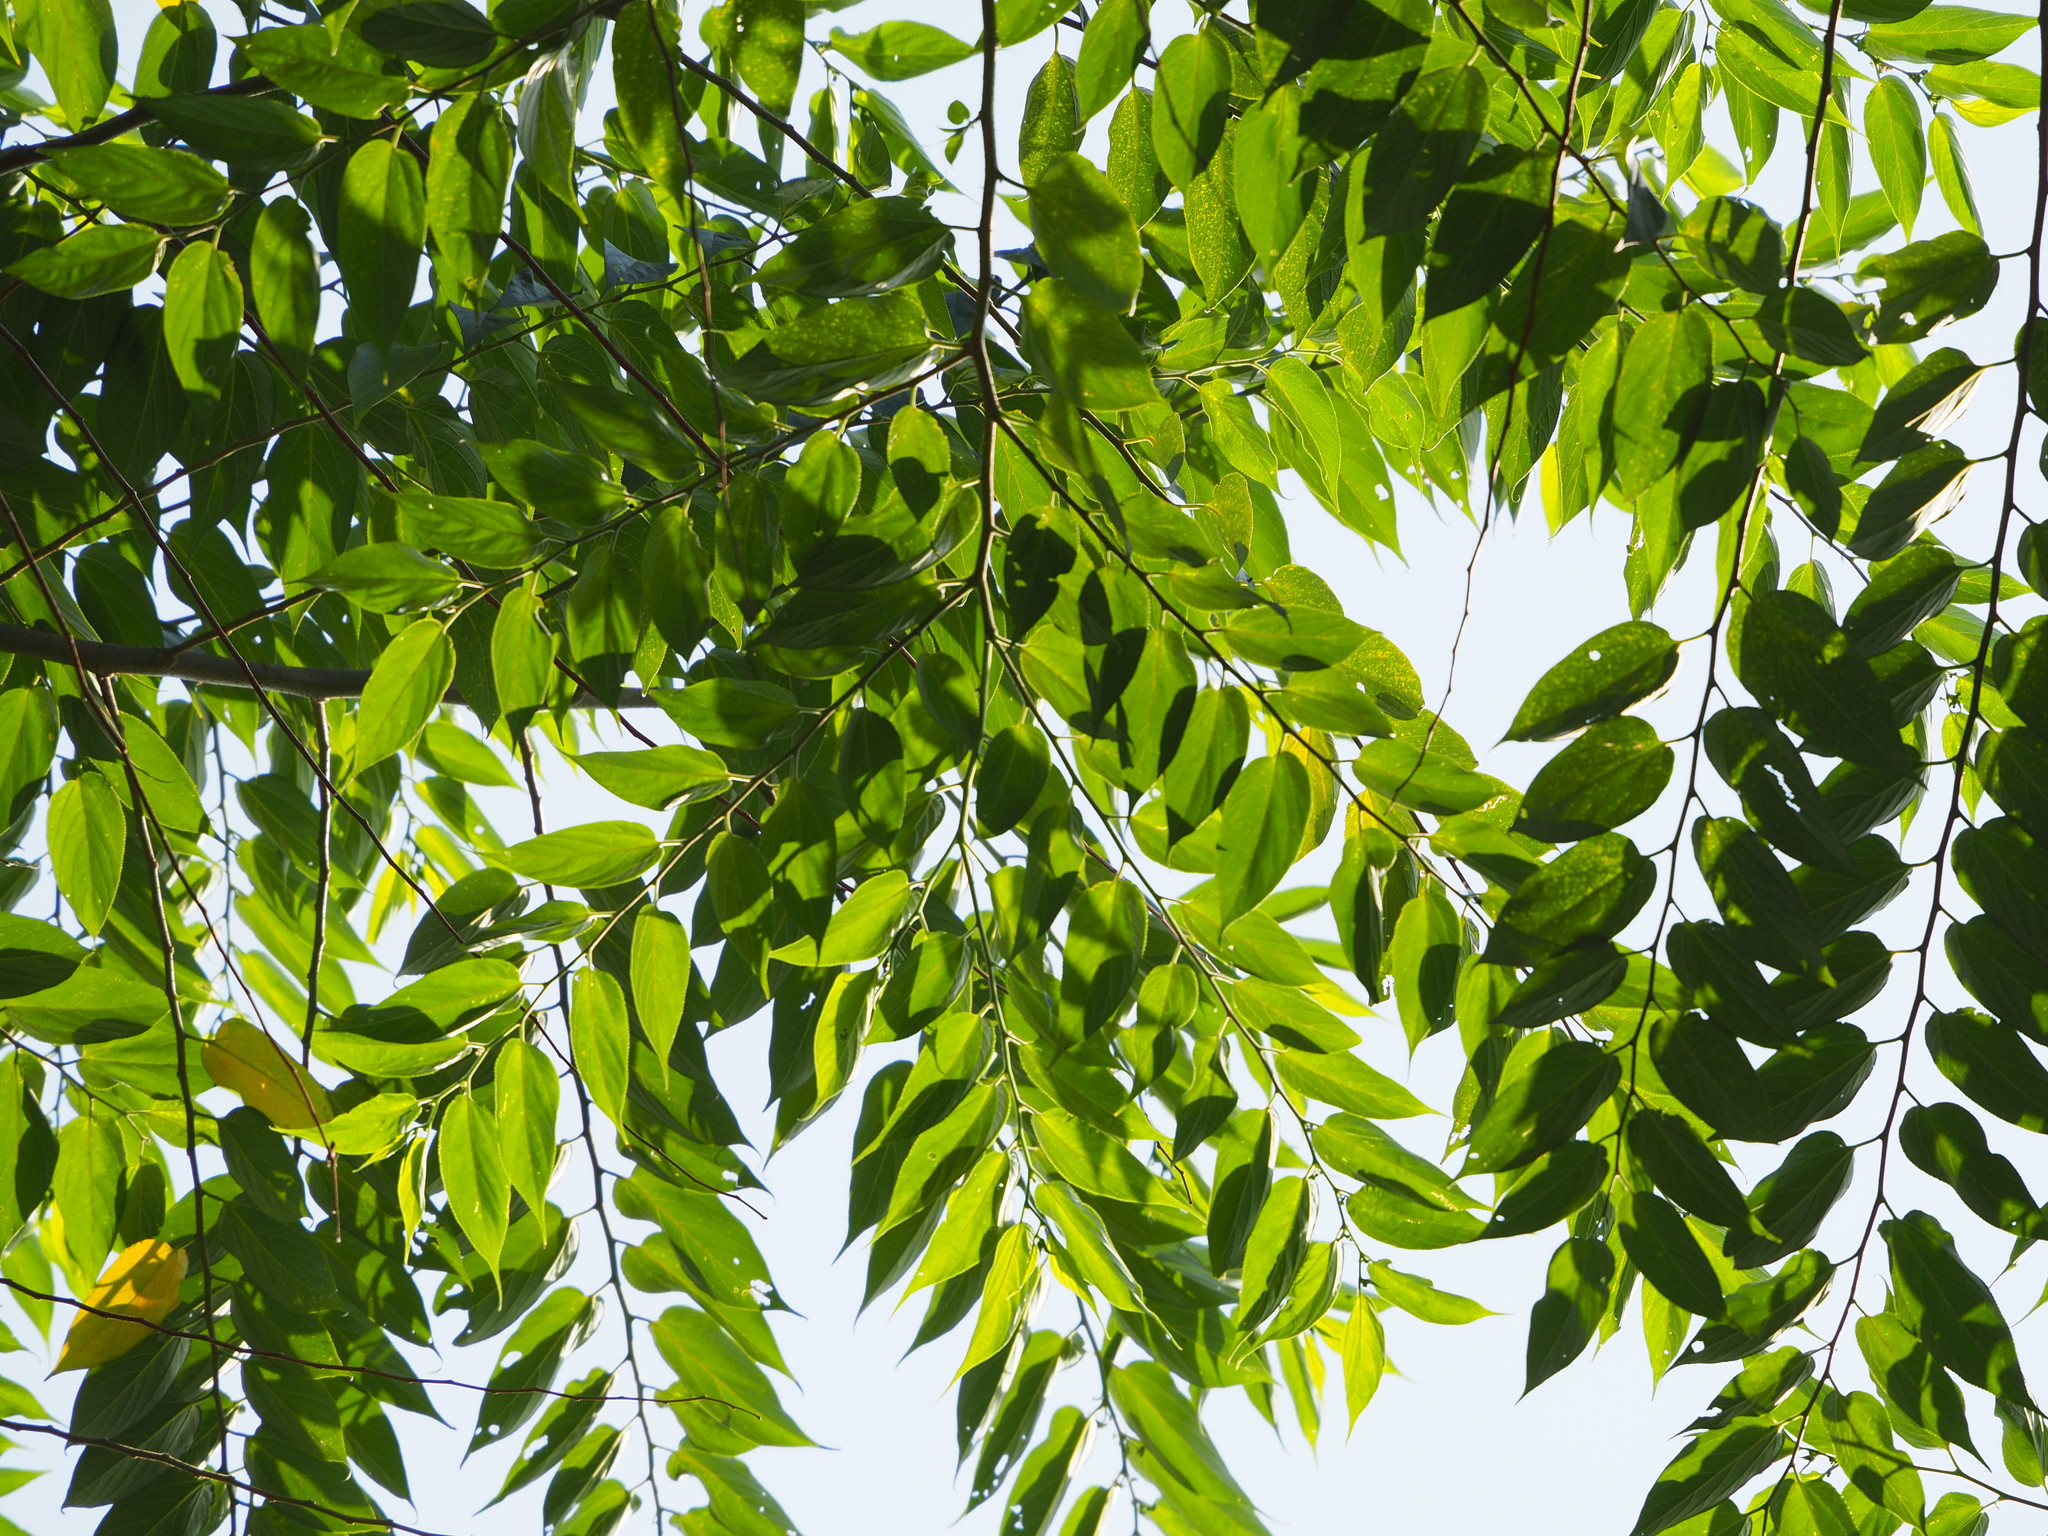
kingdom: Plantae
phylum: Tracheophyta
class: Magnoliopsida
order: Rosales
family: Cannabaceae
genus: Trema
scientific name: Trema orientale
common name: Indian charcoal tree
